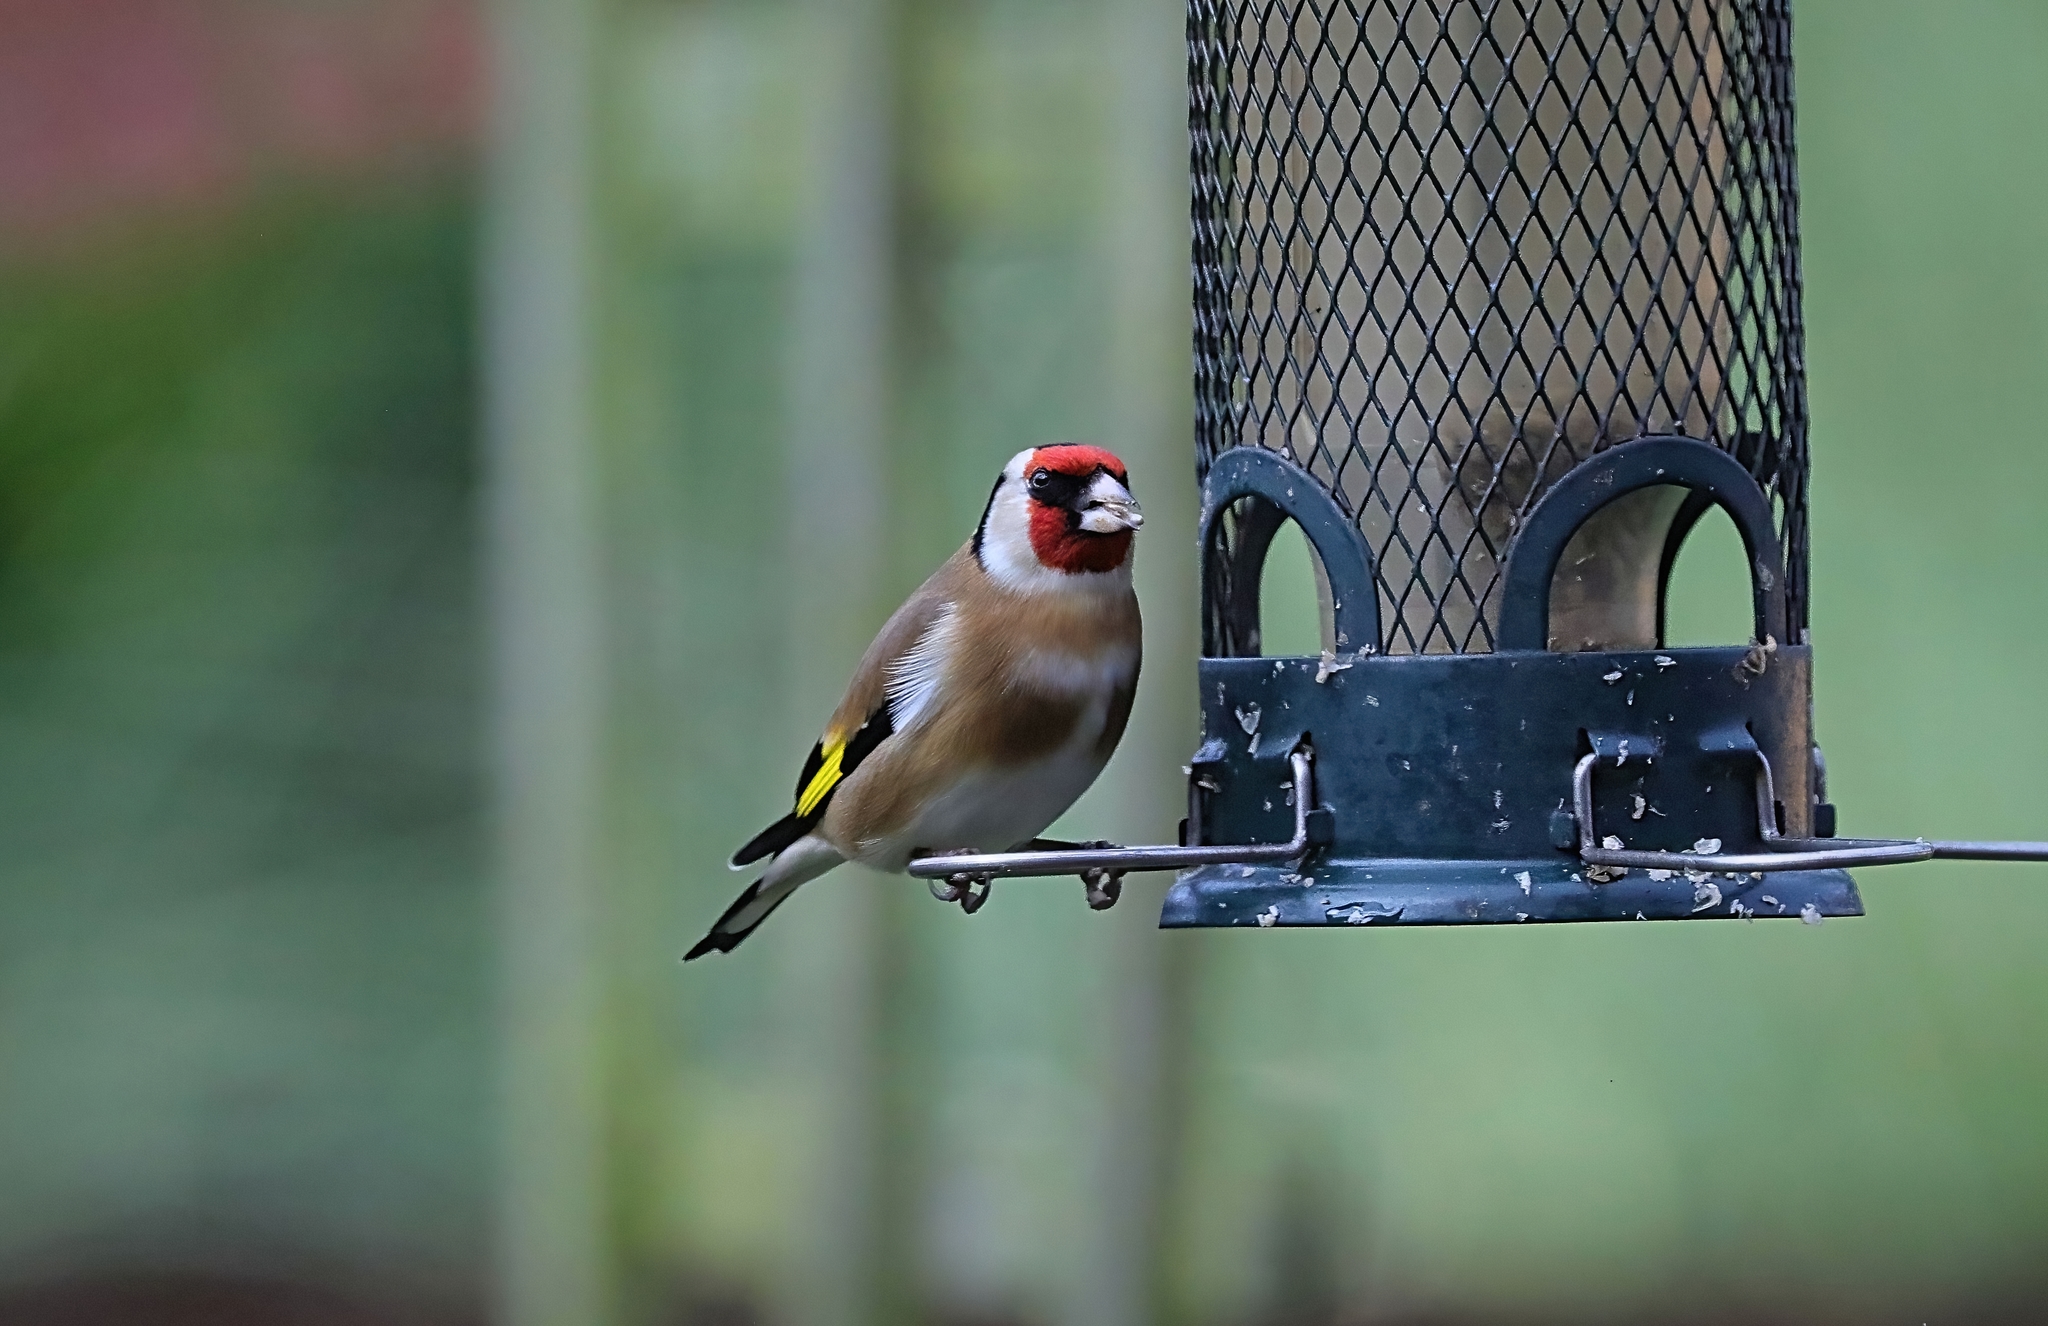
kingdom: Animalia
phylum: Chordata
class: Aves
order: Passeriformes
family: Fringillidae
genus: Carduelis
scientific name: Carduelis carduelis
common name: European goldfinch
